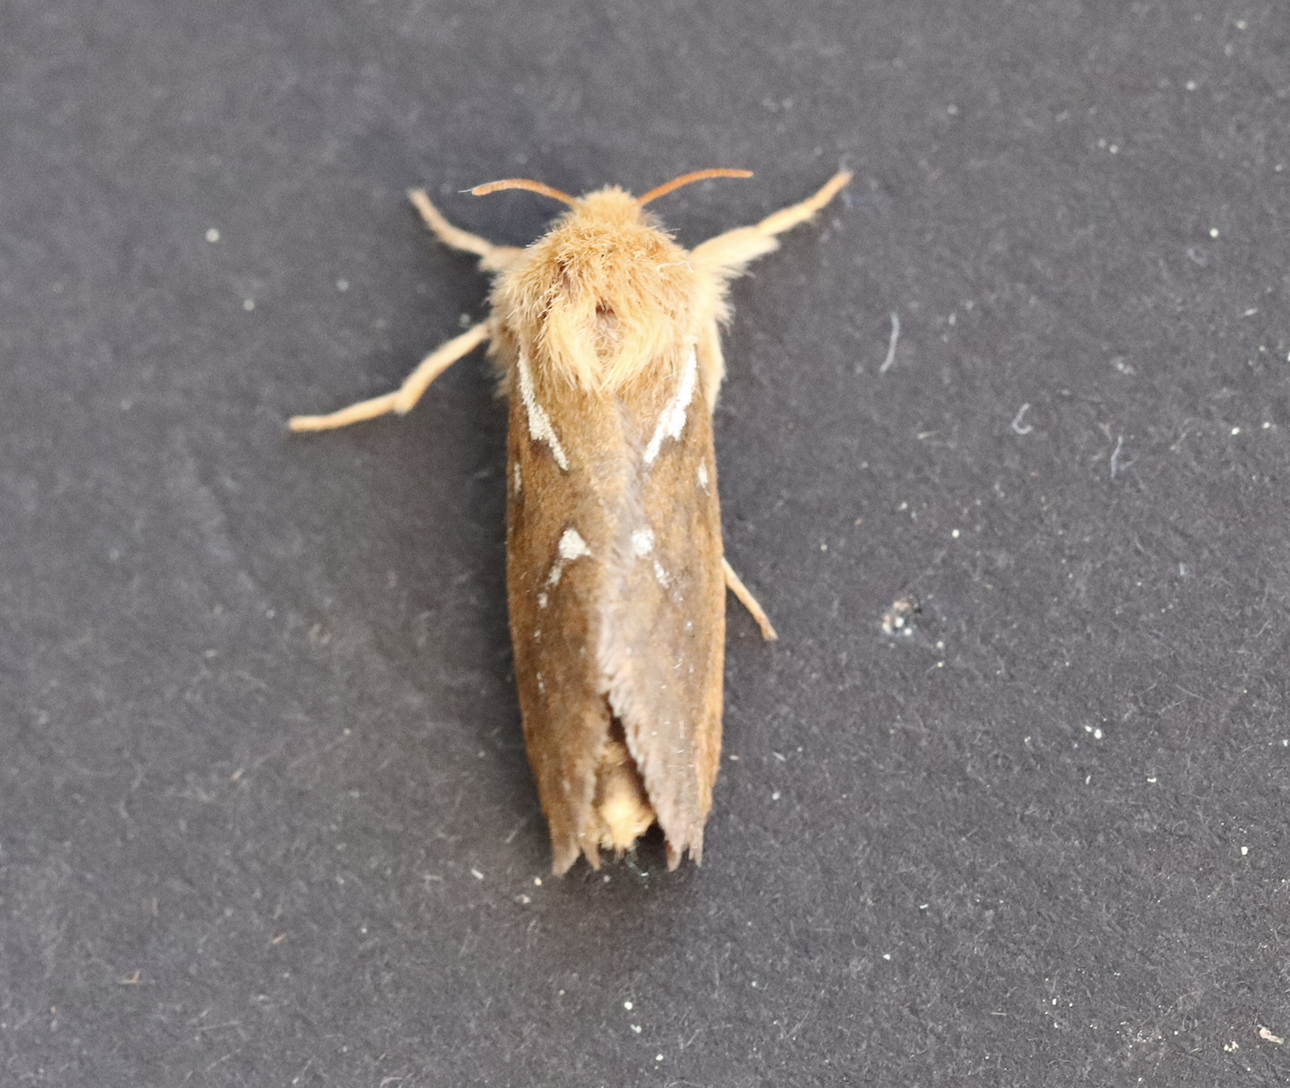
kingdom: Animalia
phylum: Arthropoda
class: Insecta
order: Lepidoptera
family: Hepialidae
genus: Korscheltellus
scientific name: Korscheltellus lupulina
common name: Common swift
